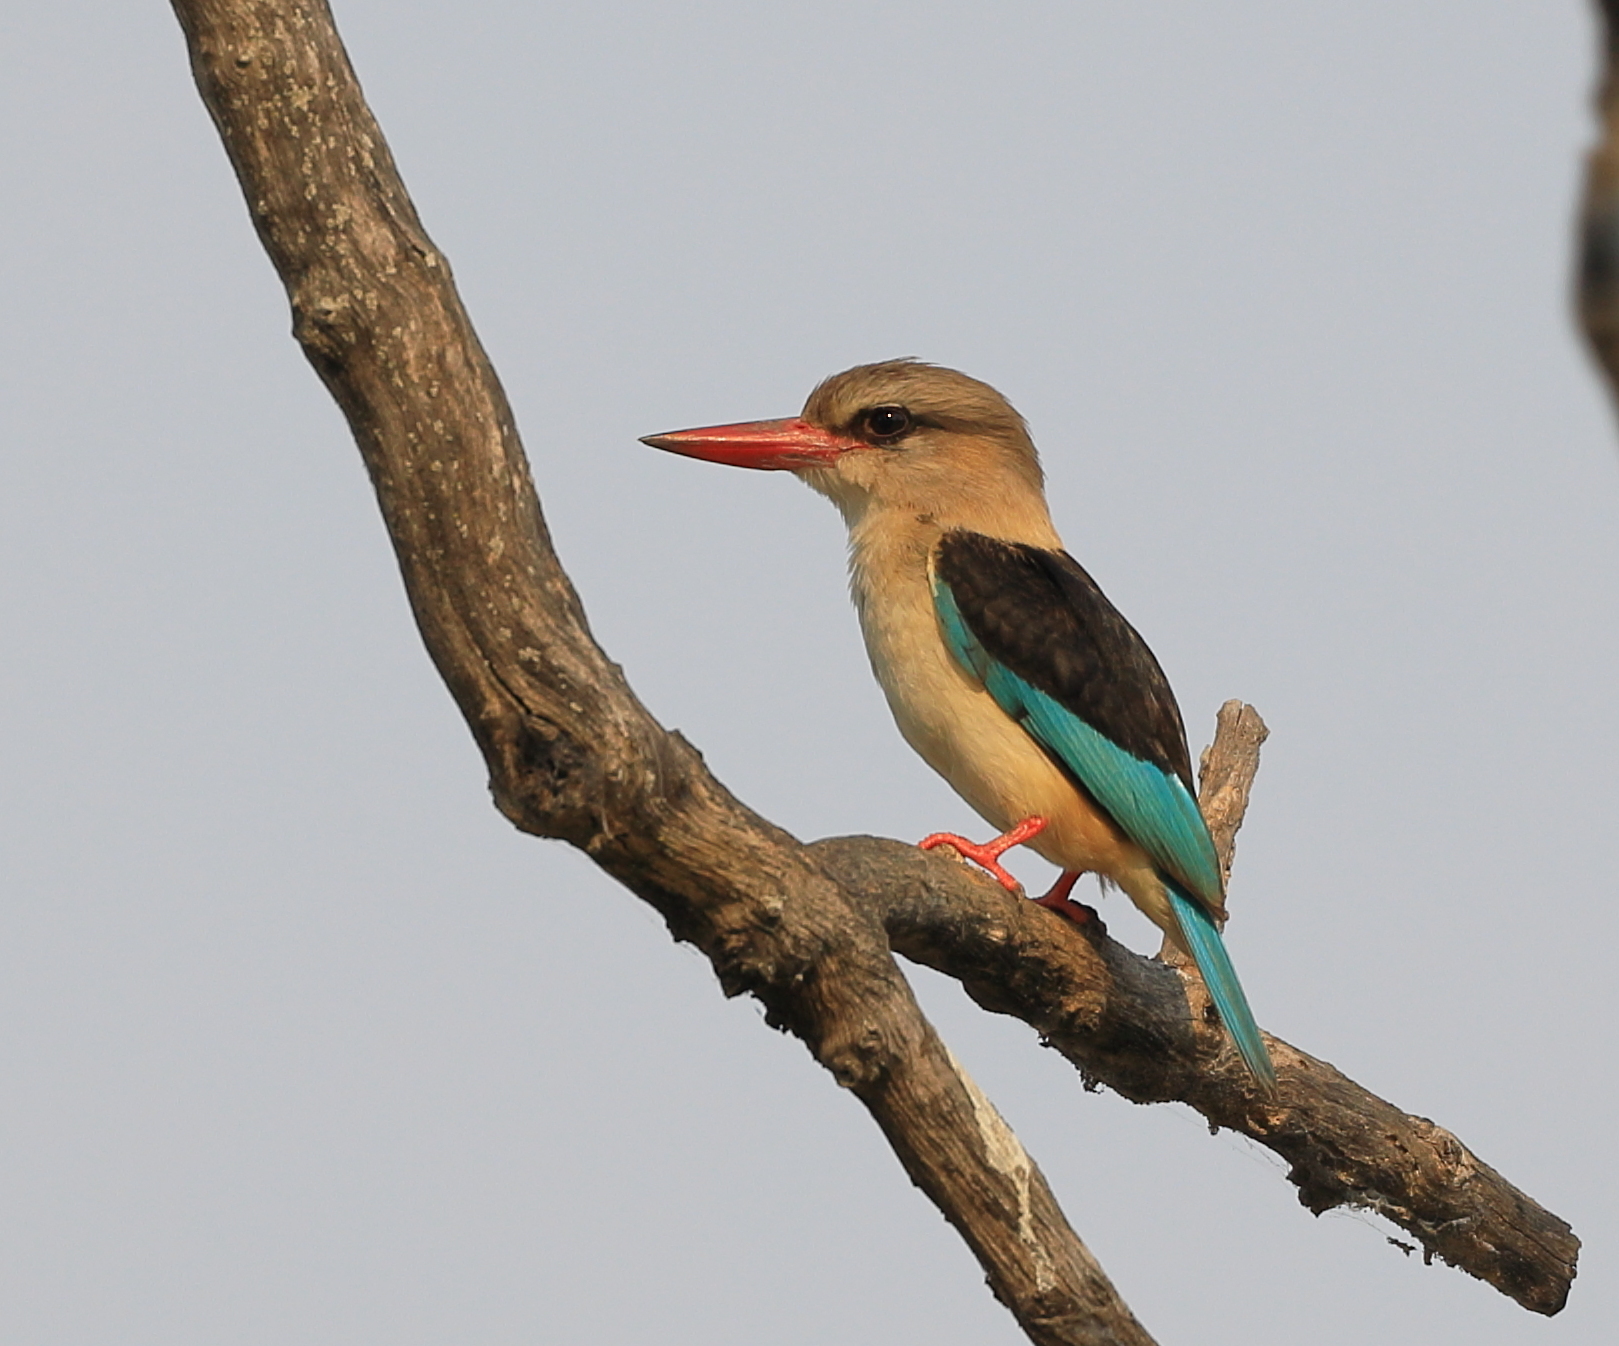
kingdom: Animalia
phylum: Chordata
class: Aves
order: Coraciiformes
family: Alcedinidae
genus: Halcyon
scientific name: Halcyon albiventris
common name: Brown-hooded kingfisher
